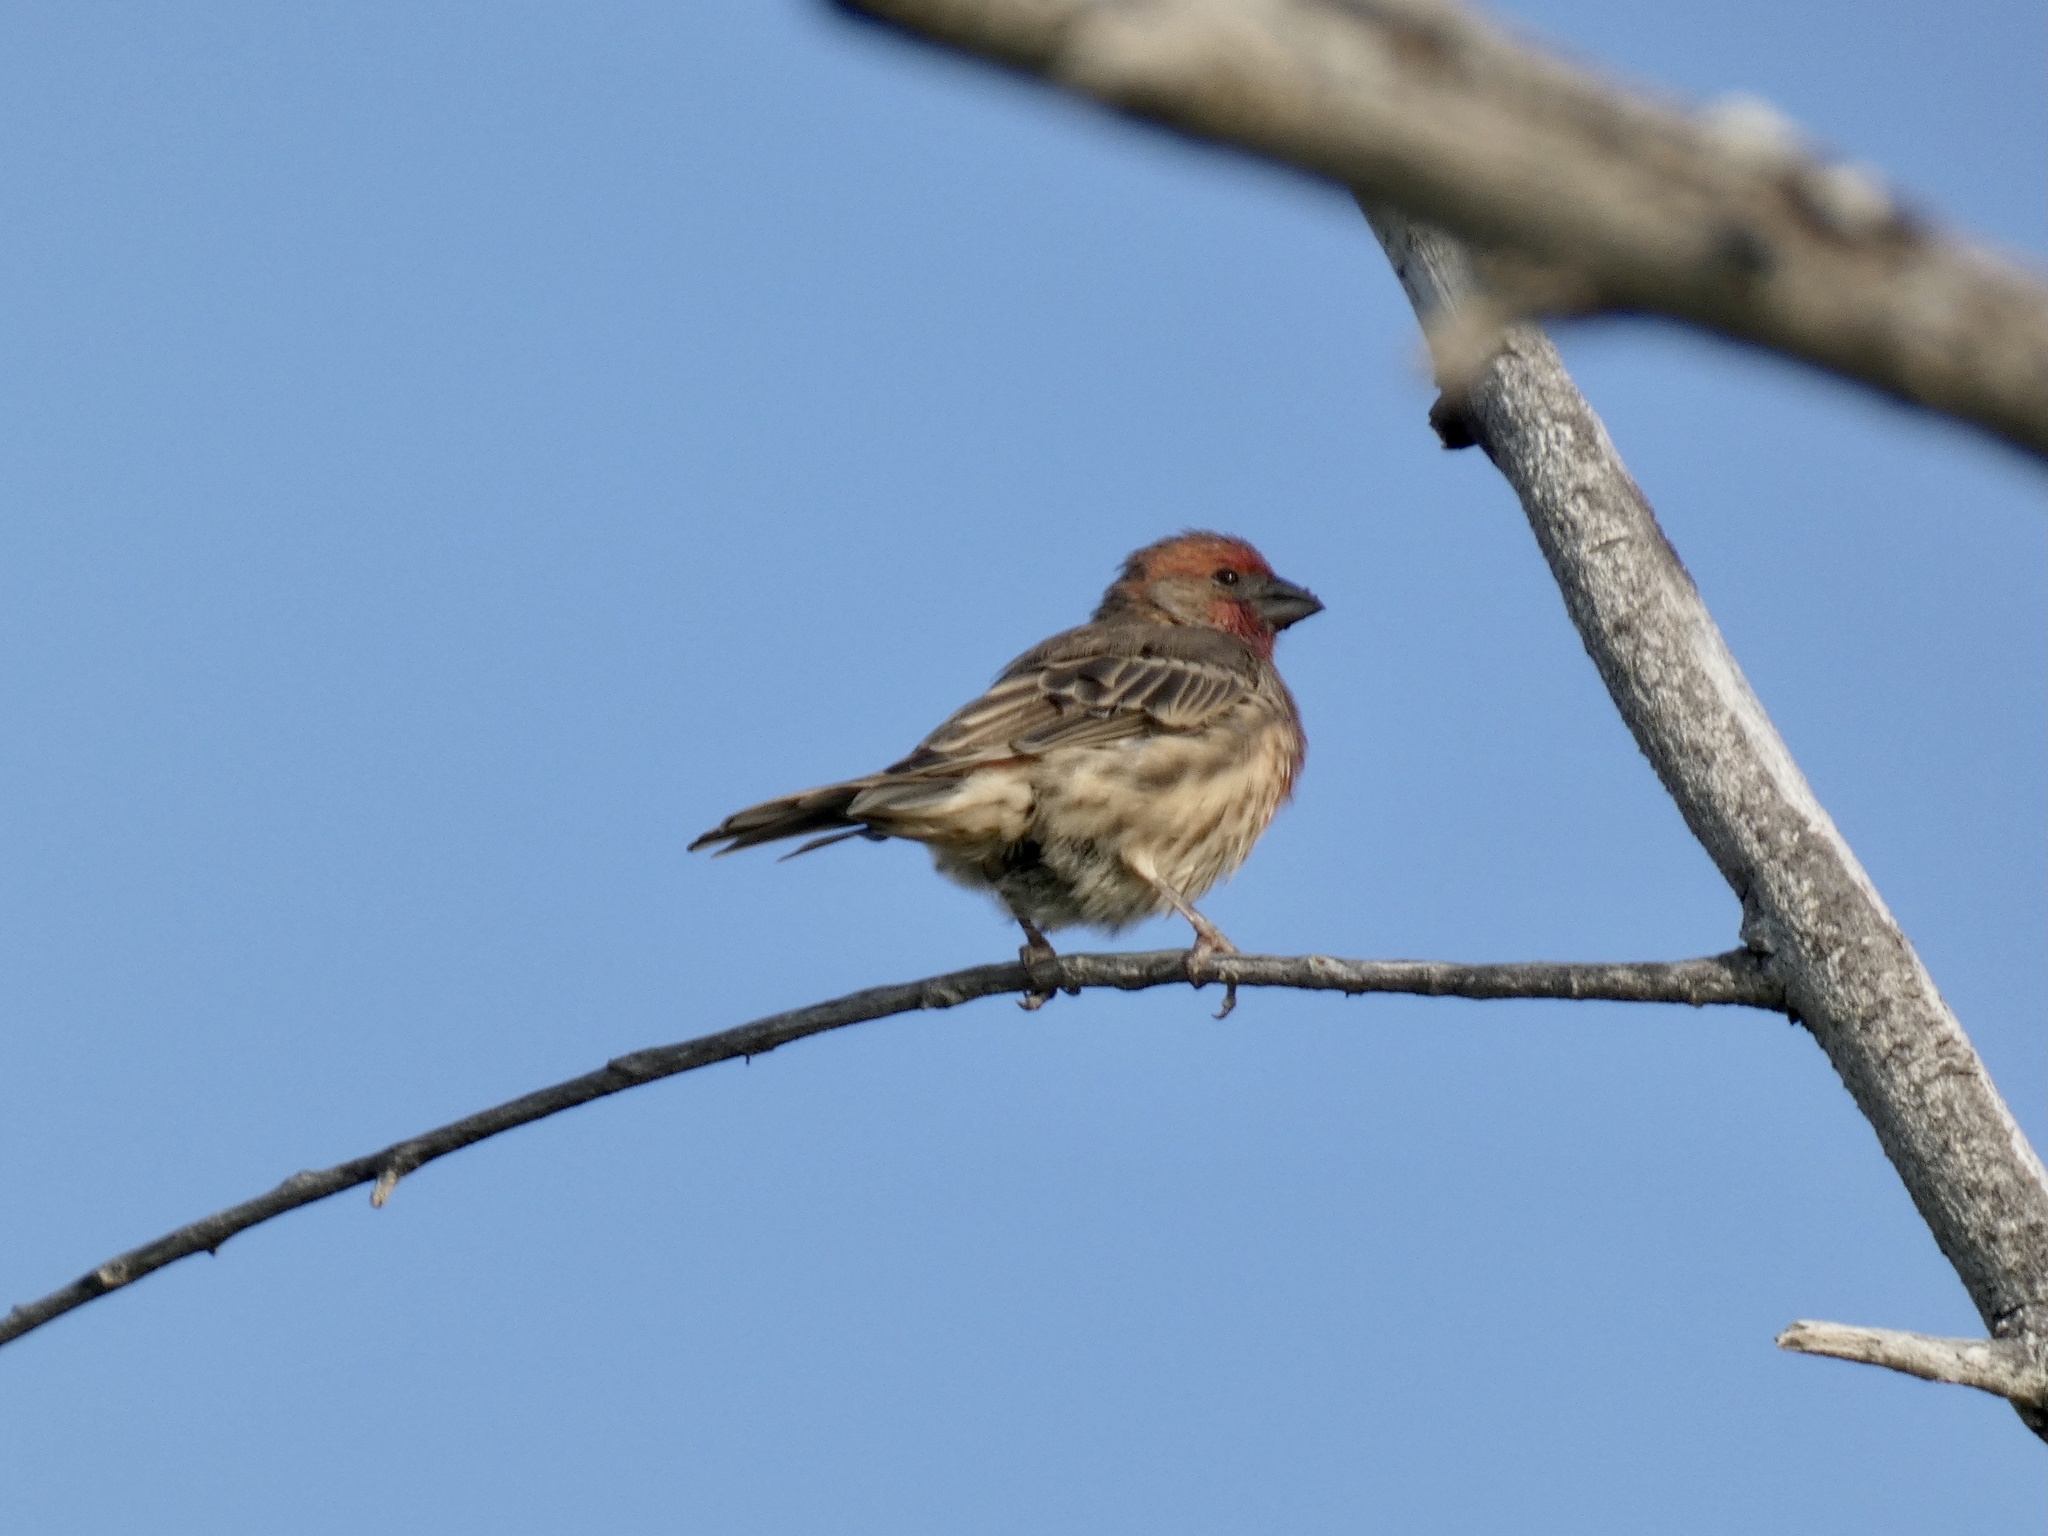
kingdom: Animalia
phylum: Chordata
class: Aves
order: Passeriformes
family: Fringillidae
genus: Haemorhous
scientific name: Haemorhous mexicanus
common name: House finch
